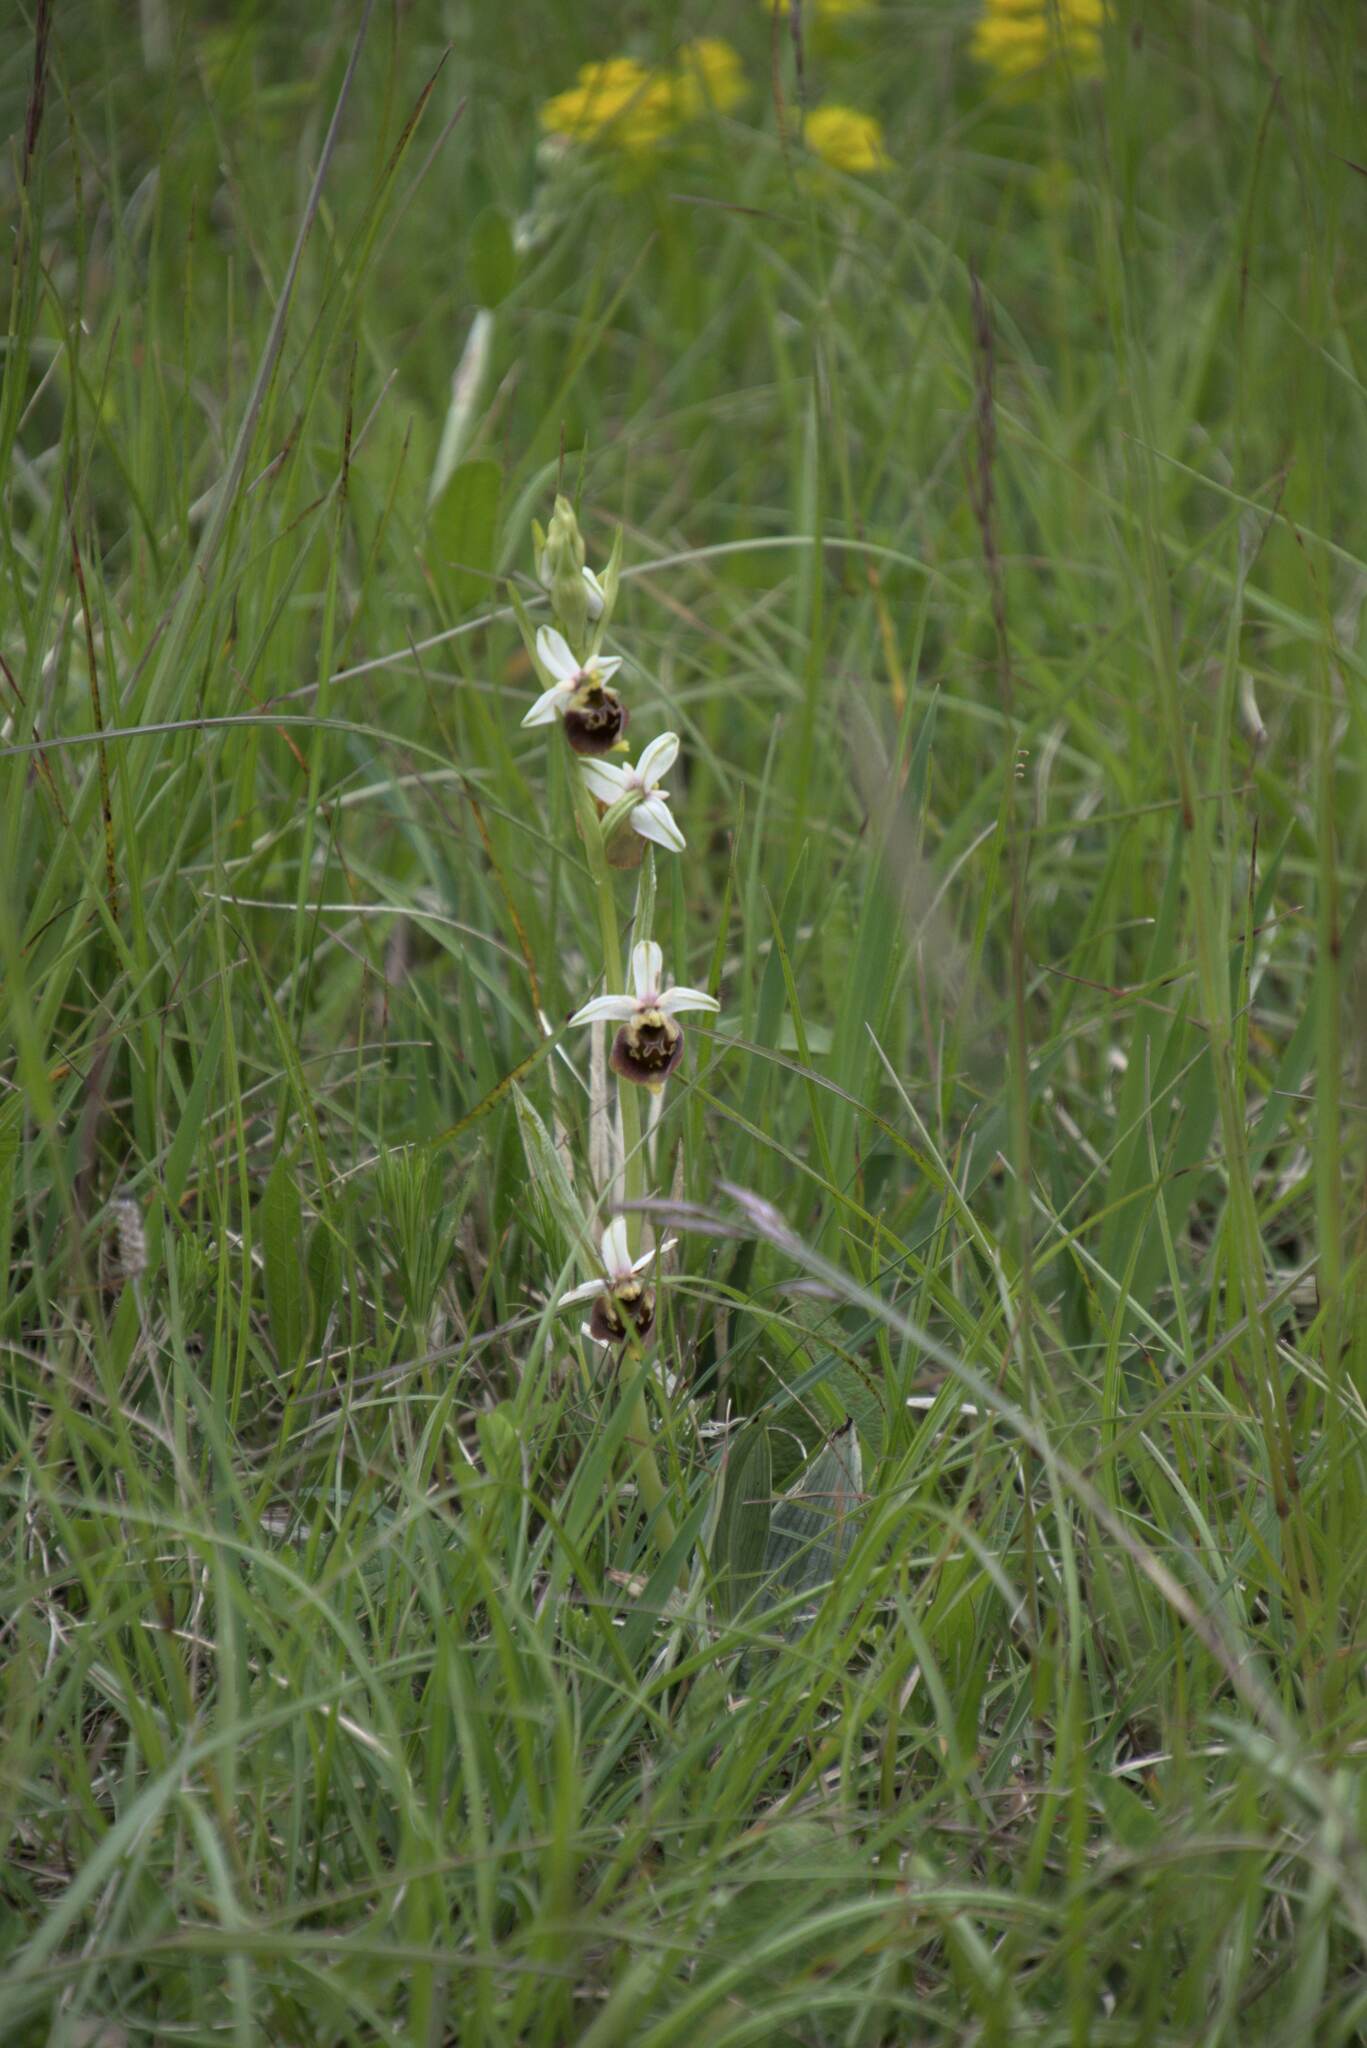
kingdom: Plantae
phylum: Tracheophyta
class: Liliopsida
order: Asparagales
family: Orchidaceae
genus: Ophrys
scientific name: Ophrys holosericea
